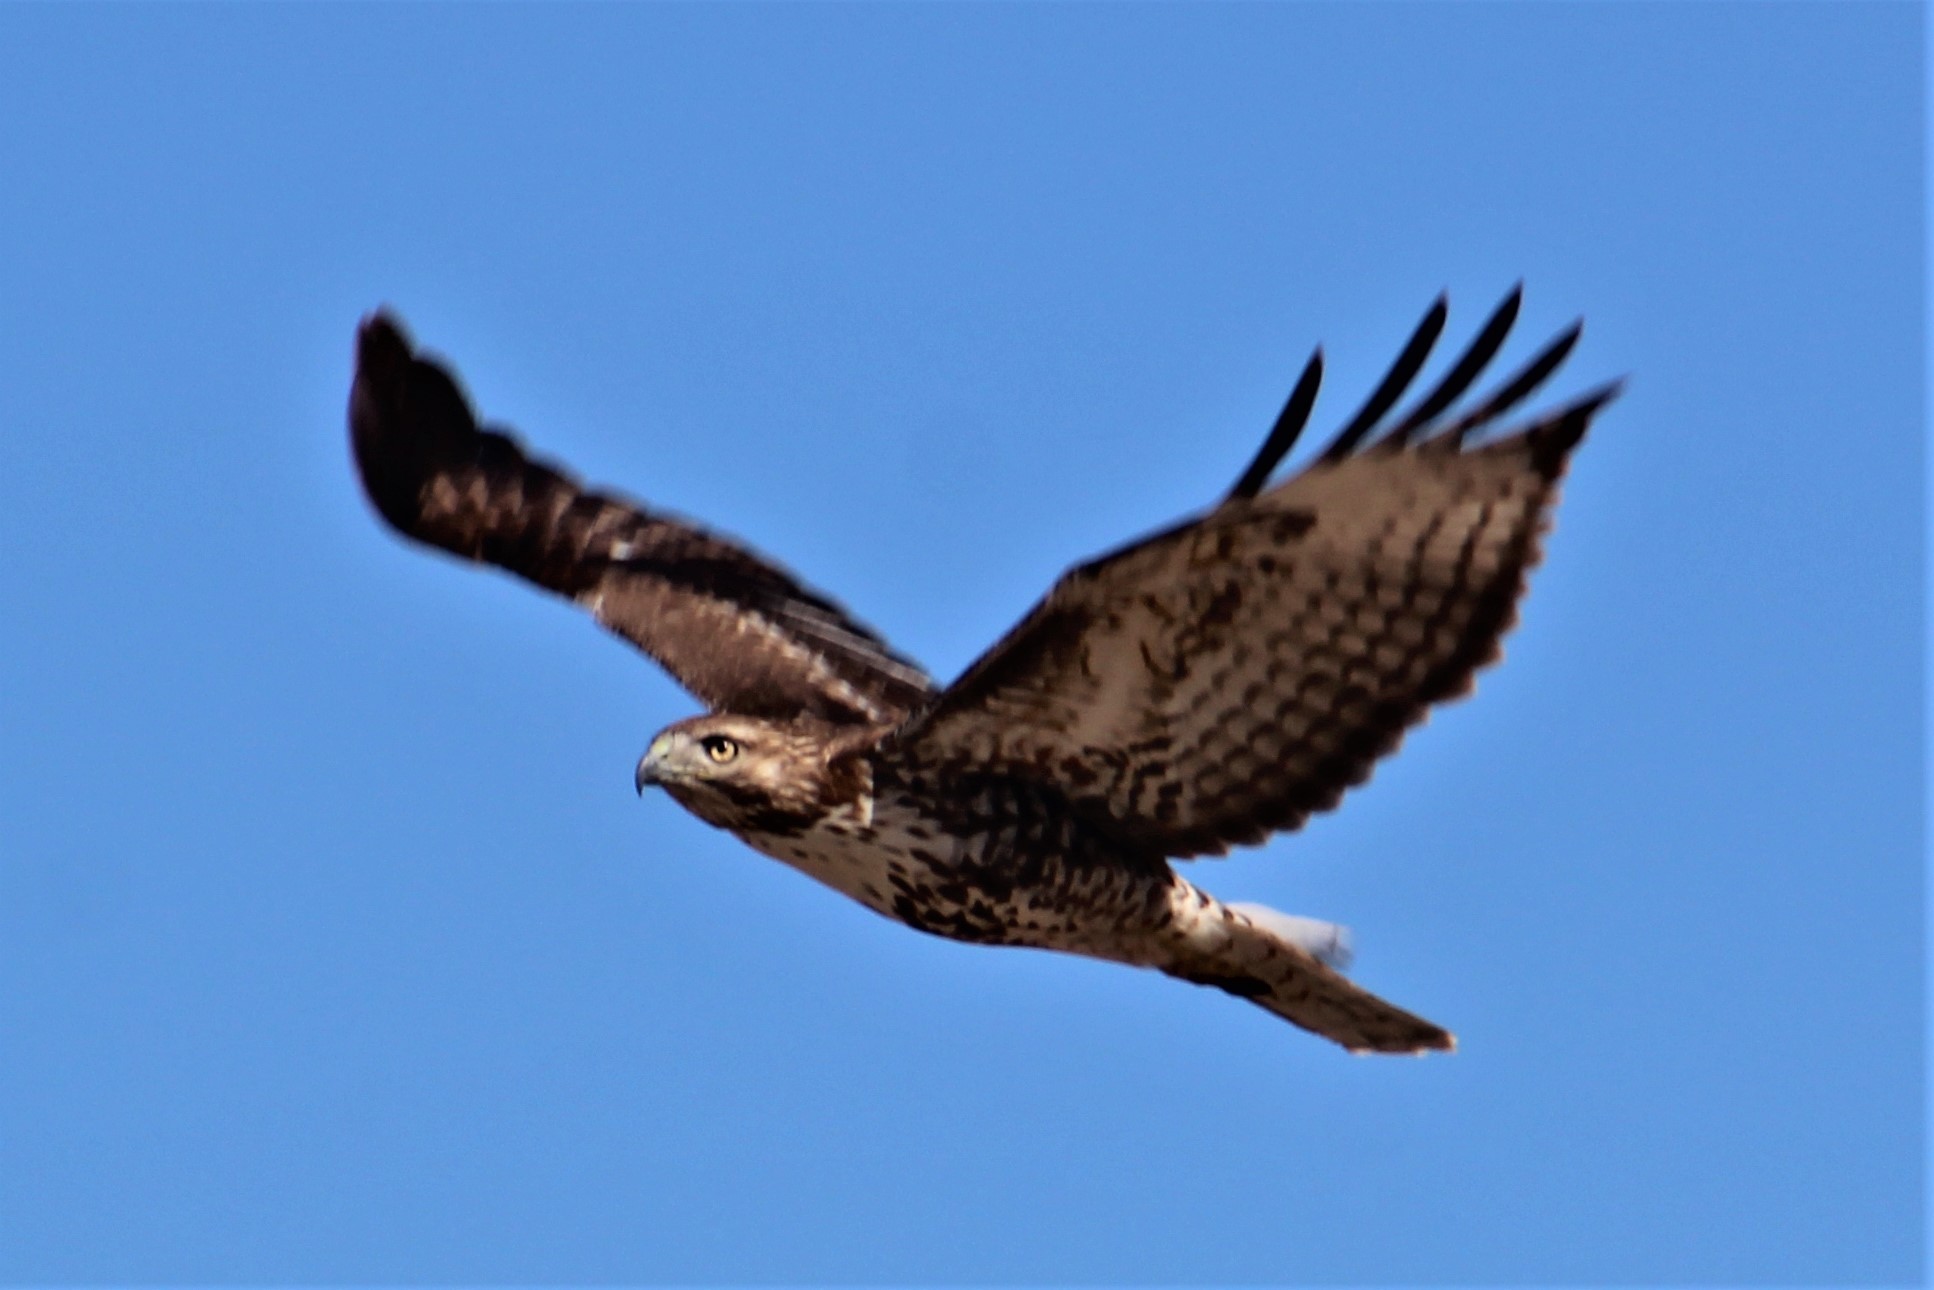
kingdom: Animalia
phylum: Chordata
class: Aves
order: Accipitriformes
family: Accipitridae
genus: Buteo
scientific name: Buteo jamaicensis
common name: Red-tailed hawk
